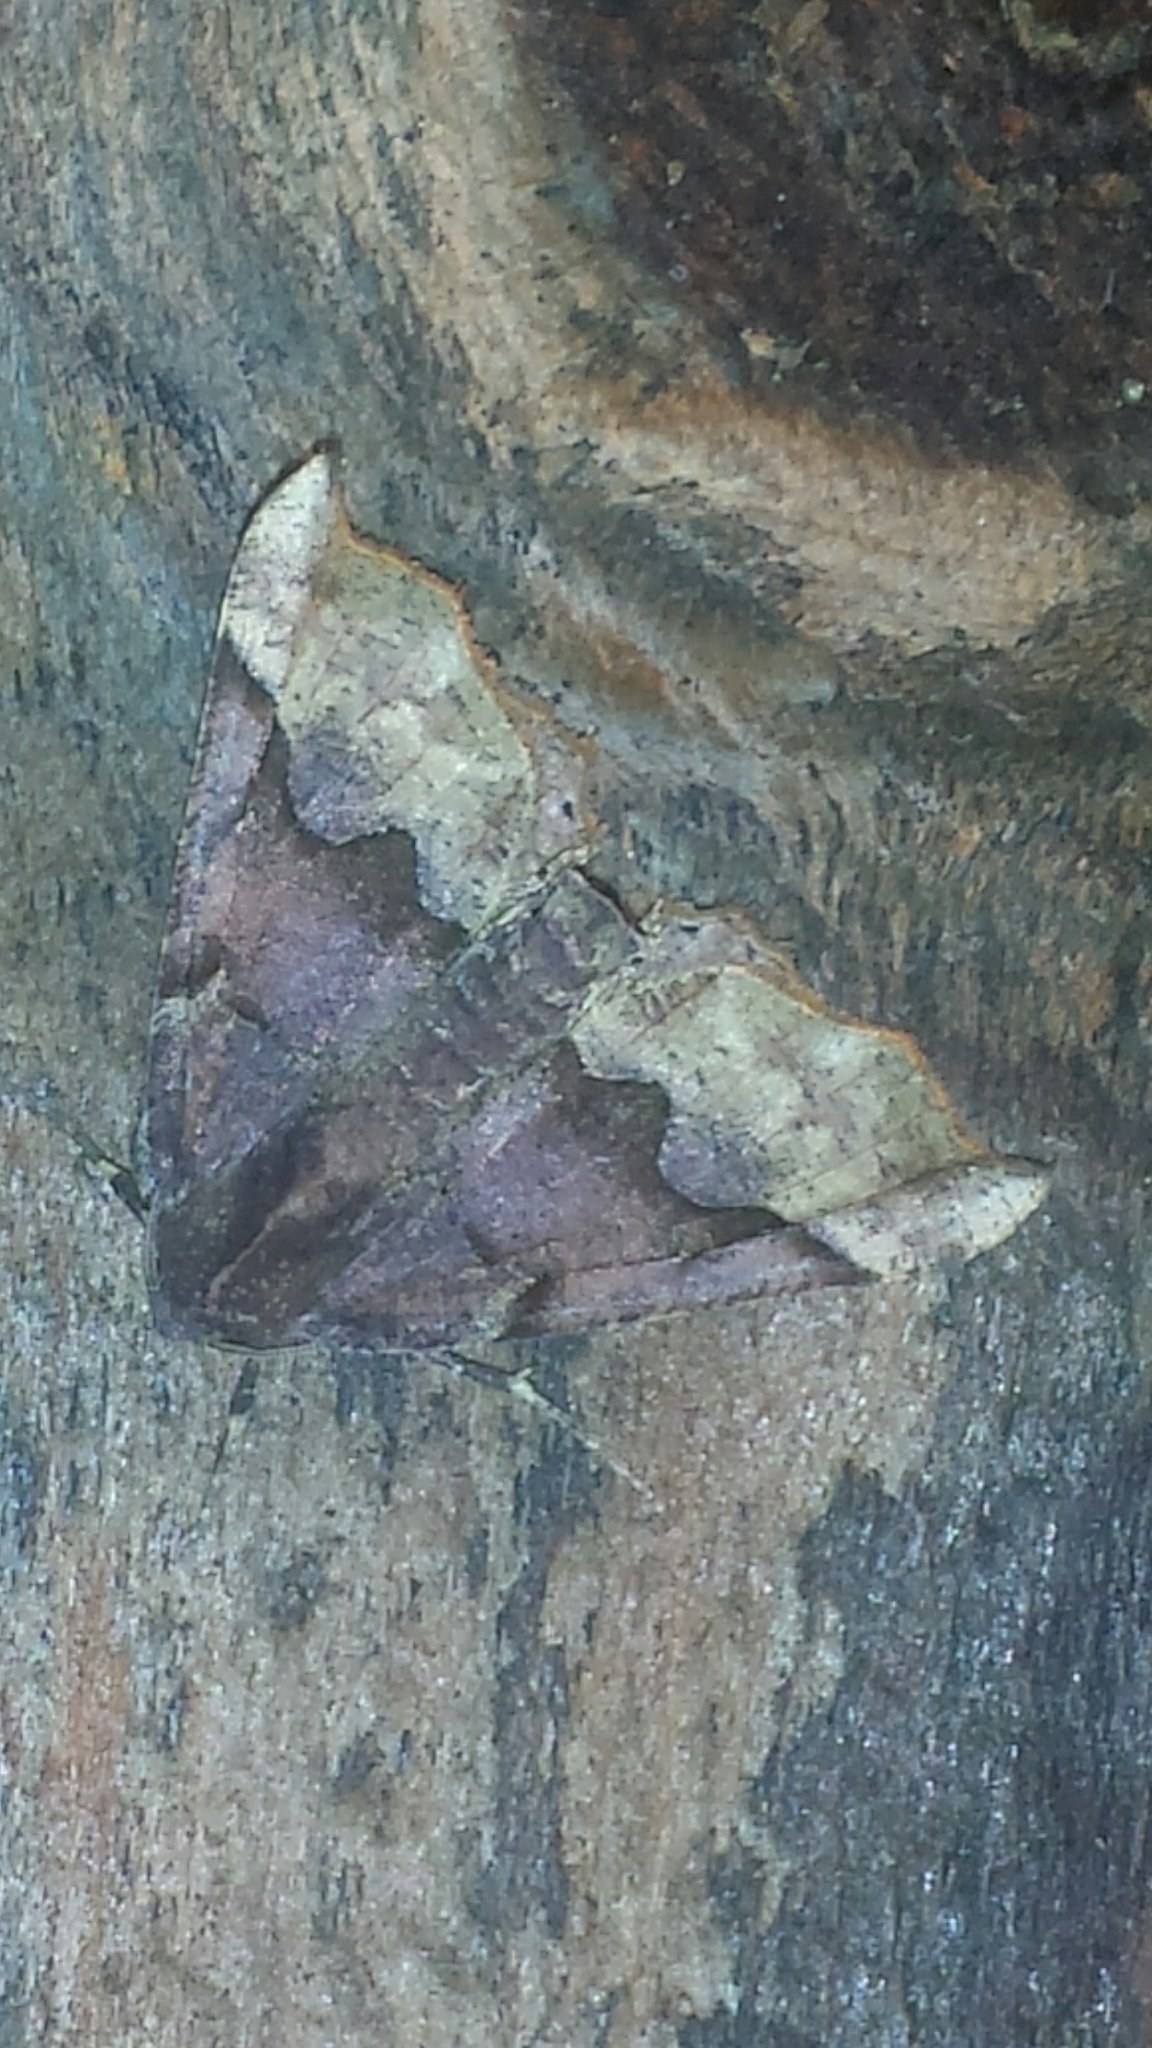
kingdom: Animalia
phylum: Arthropoda
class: Insecta
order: Lepidoptera
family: Geometridae
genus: Pero
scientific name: Pero honestaria
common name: Honest pero
